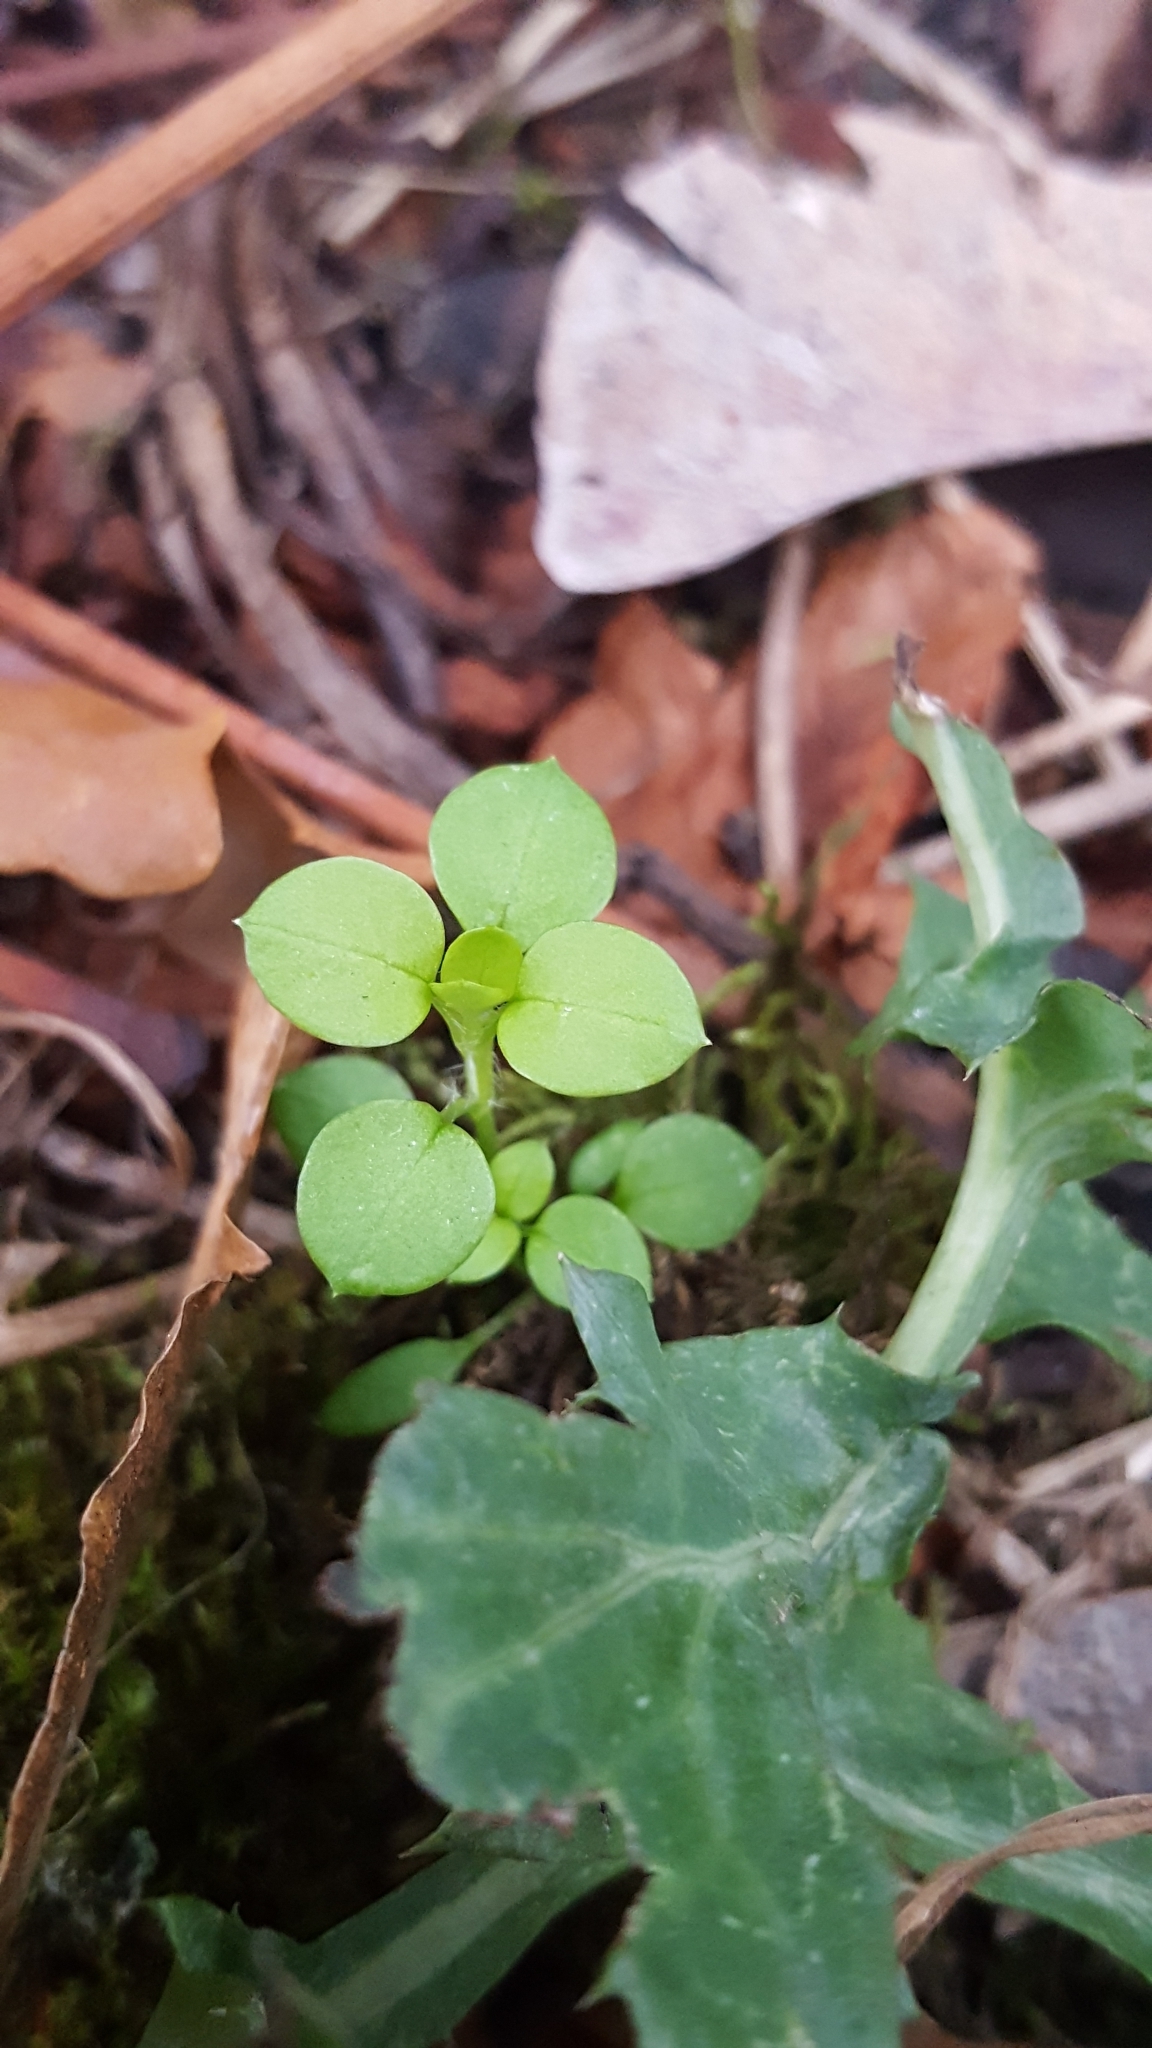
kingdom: Plantae
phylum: Tracheophyta
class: Magnoliopsida
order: Caryophyllales
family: Caryophyllaceae
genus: Stellaria
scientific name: Stellaria media
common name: Common chickweed
